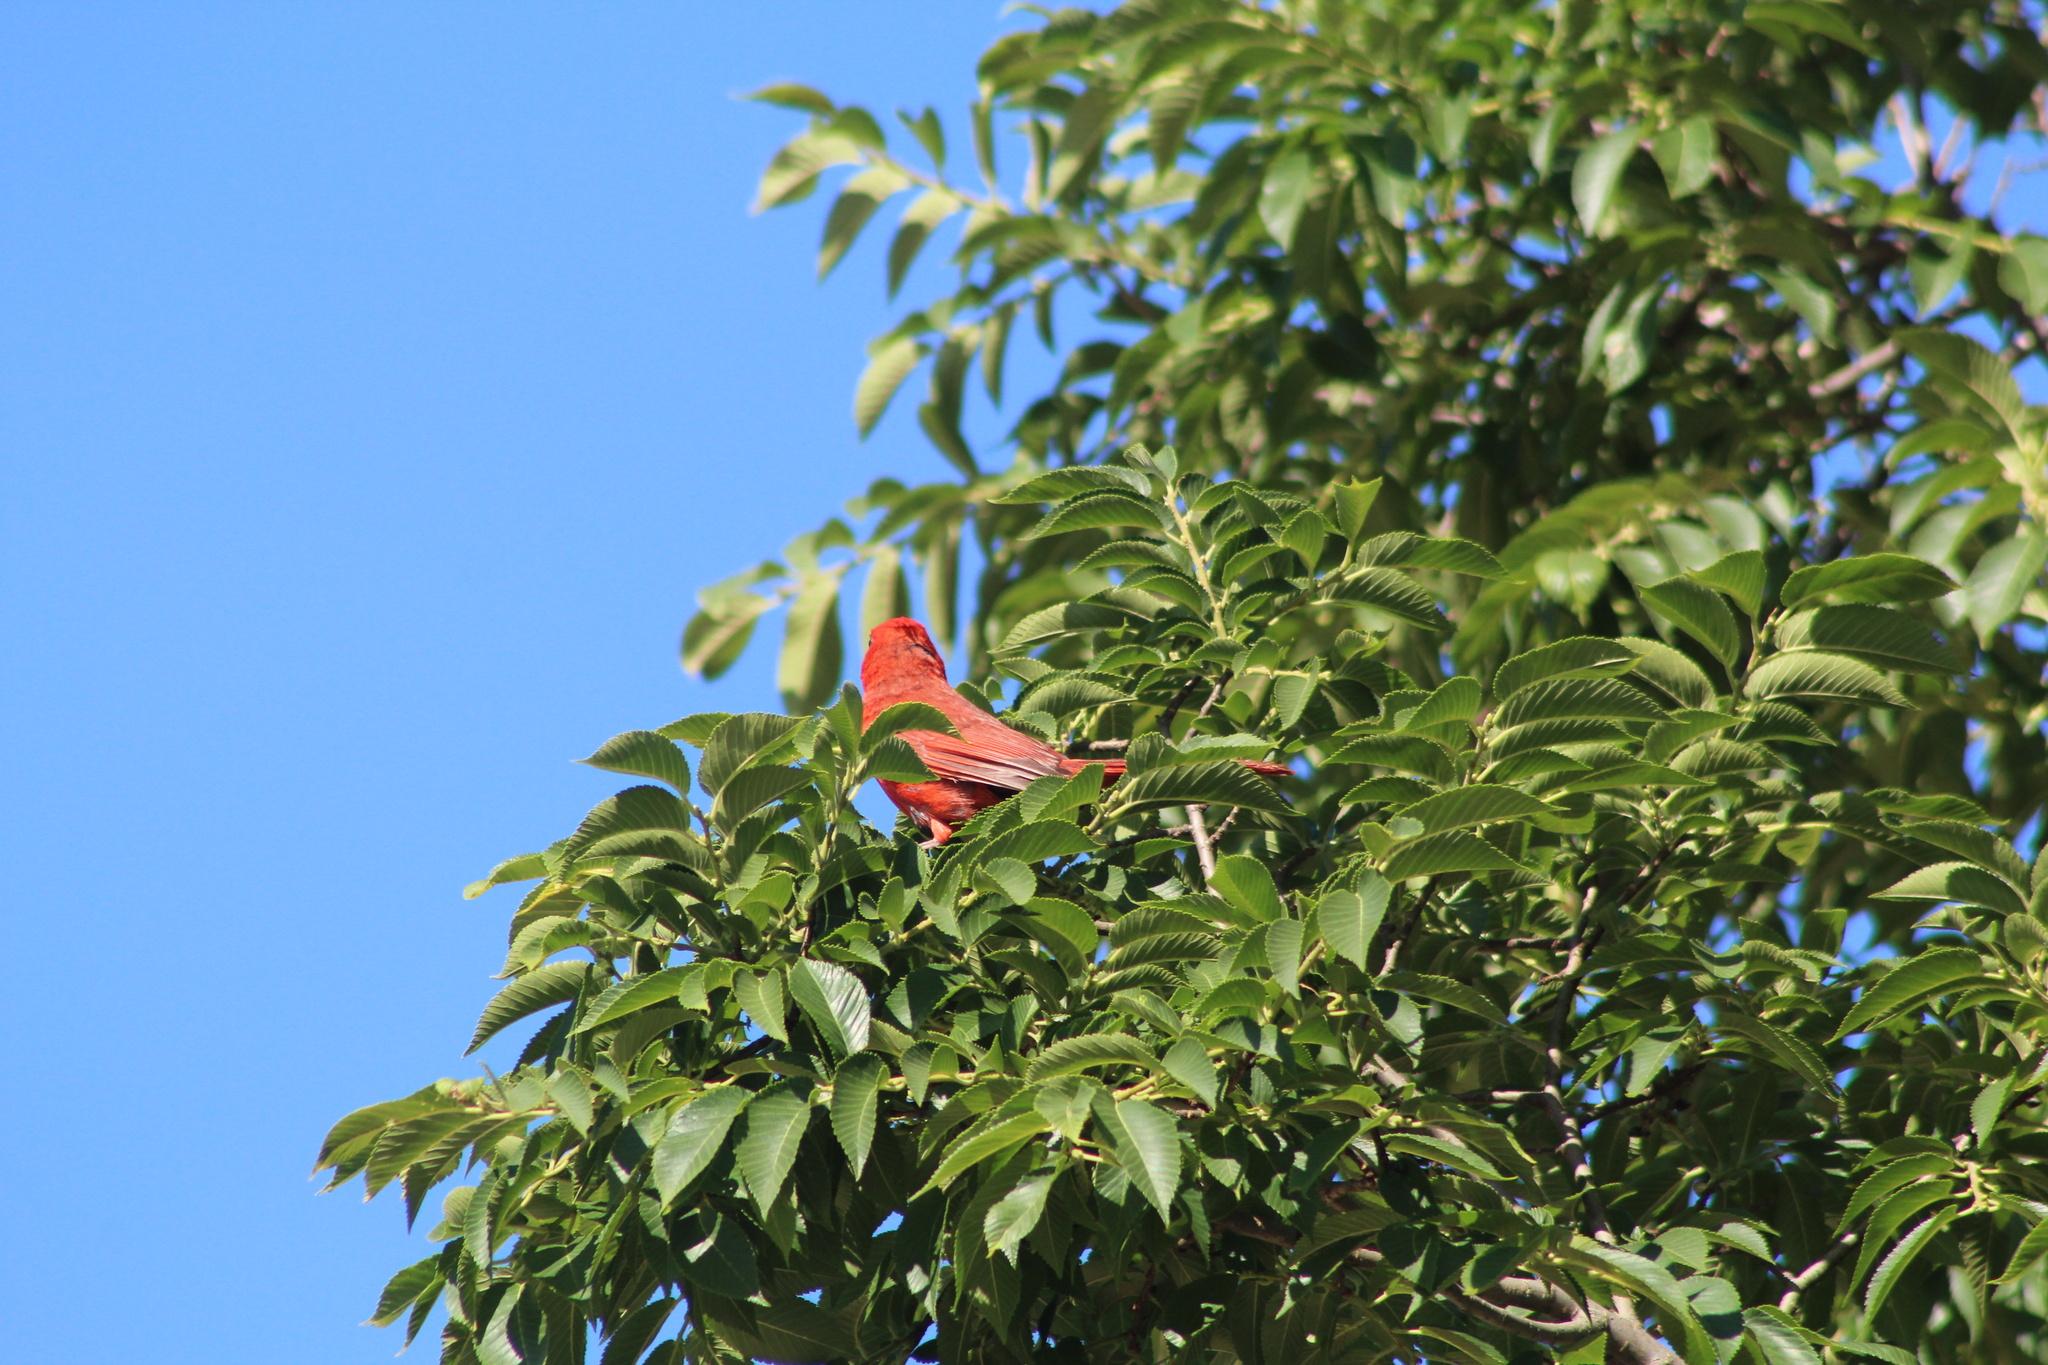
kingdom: Animalia
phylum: Chordata
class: Aves
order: Passeriformes
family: Cardinalidae
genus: Cardinalis
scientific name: Cardinalis cardinalis
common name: Northern cardinal
